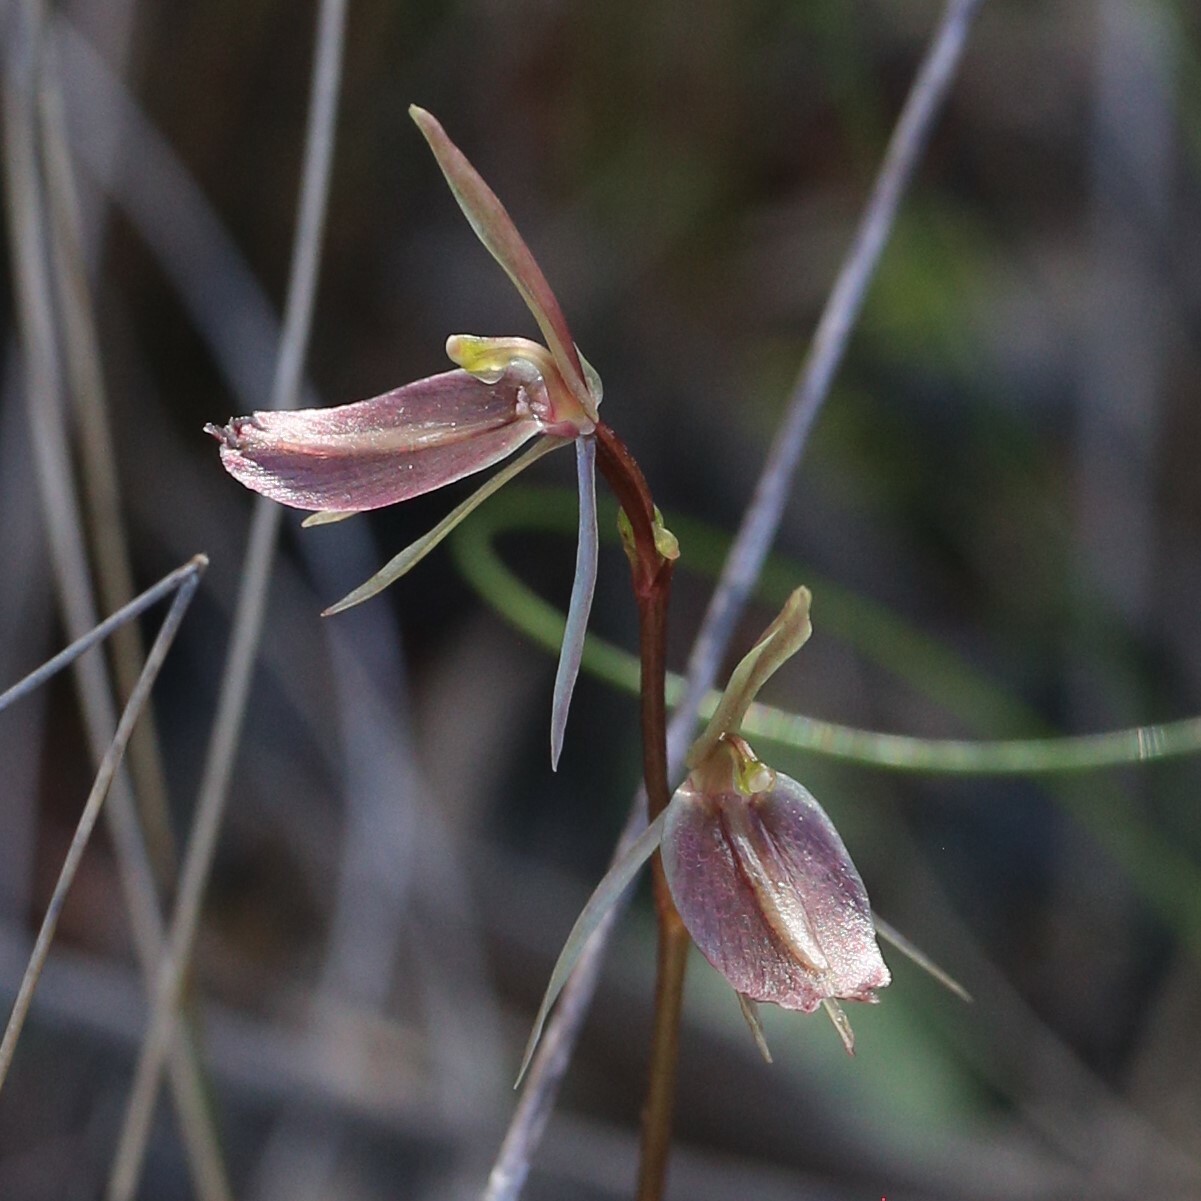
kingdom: Plantae
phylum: Tracheophyta
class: Liliopsida
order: Asparagales
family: Orchidaceae
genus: Cyrtostylis
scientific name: Cyrtostylis robusta
